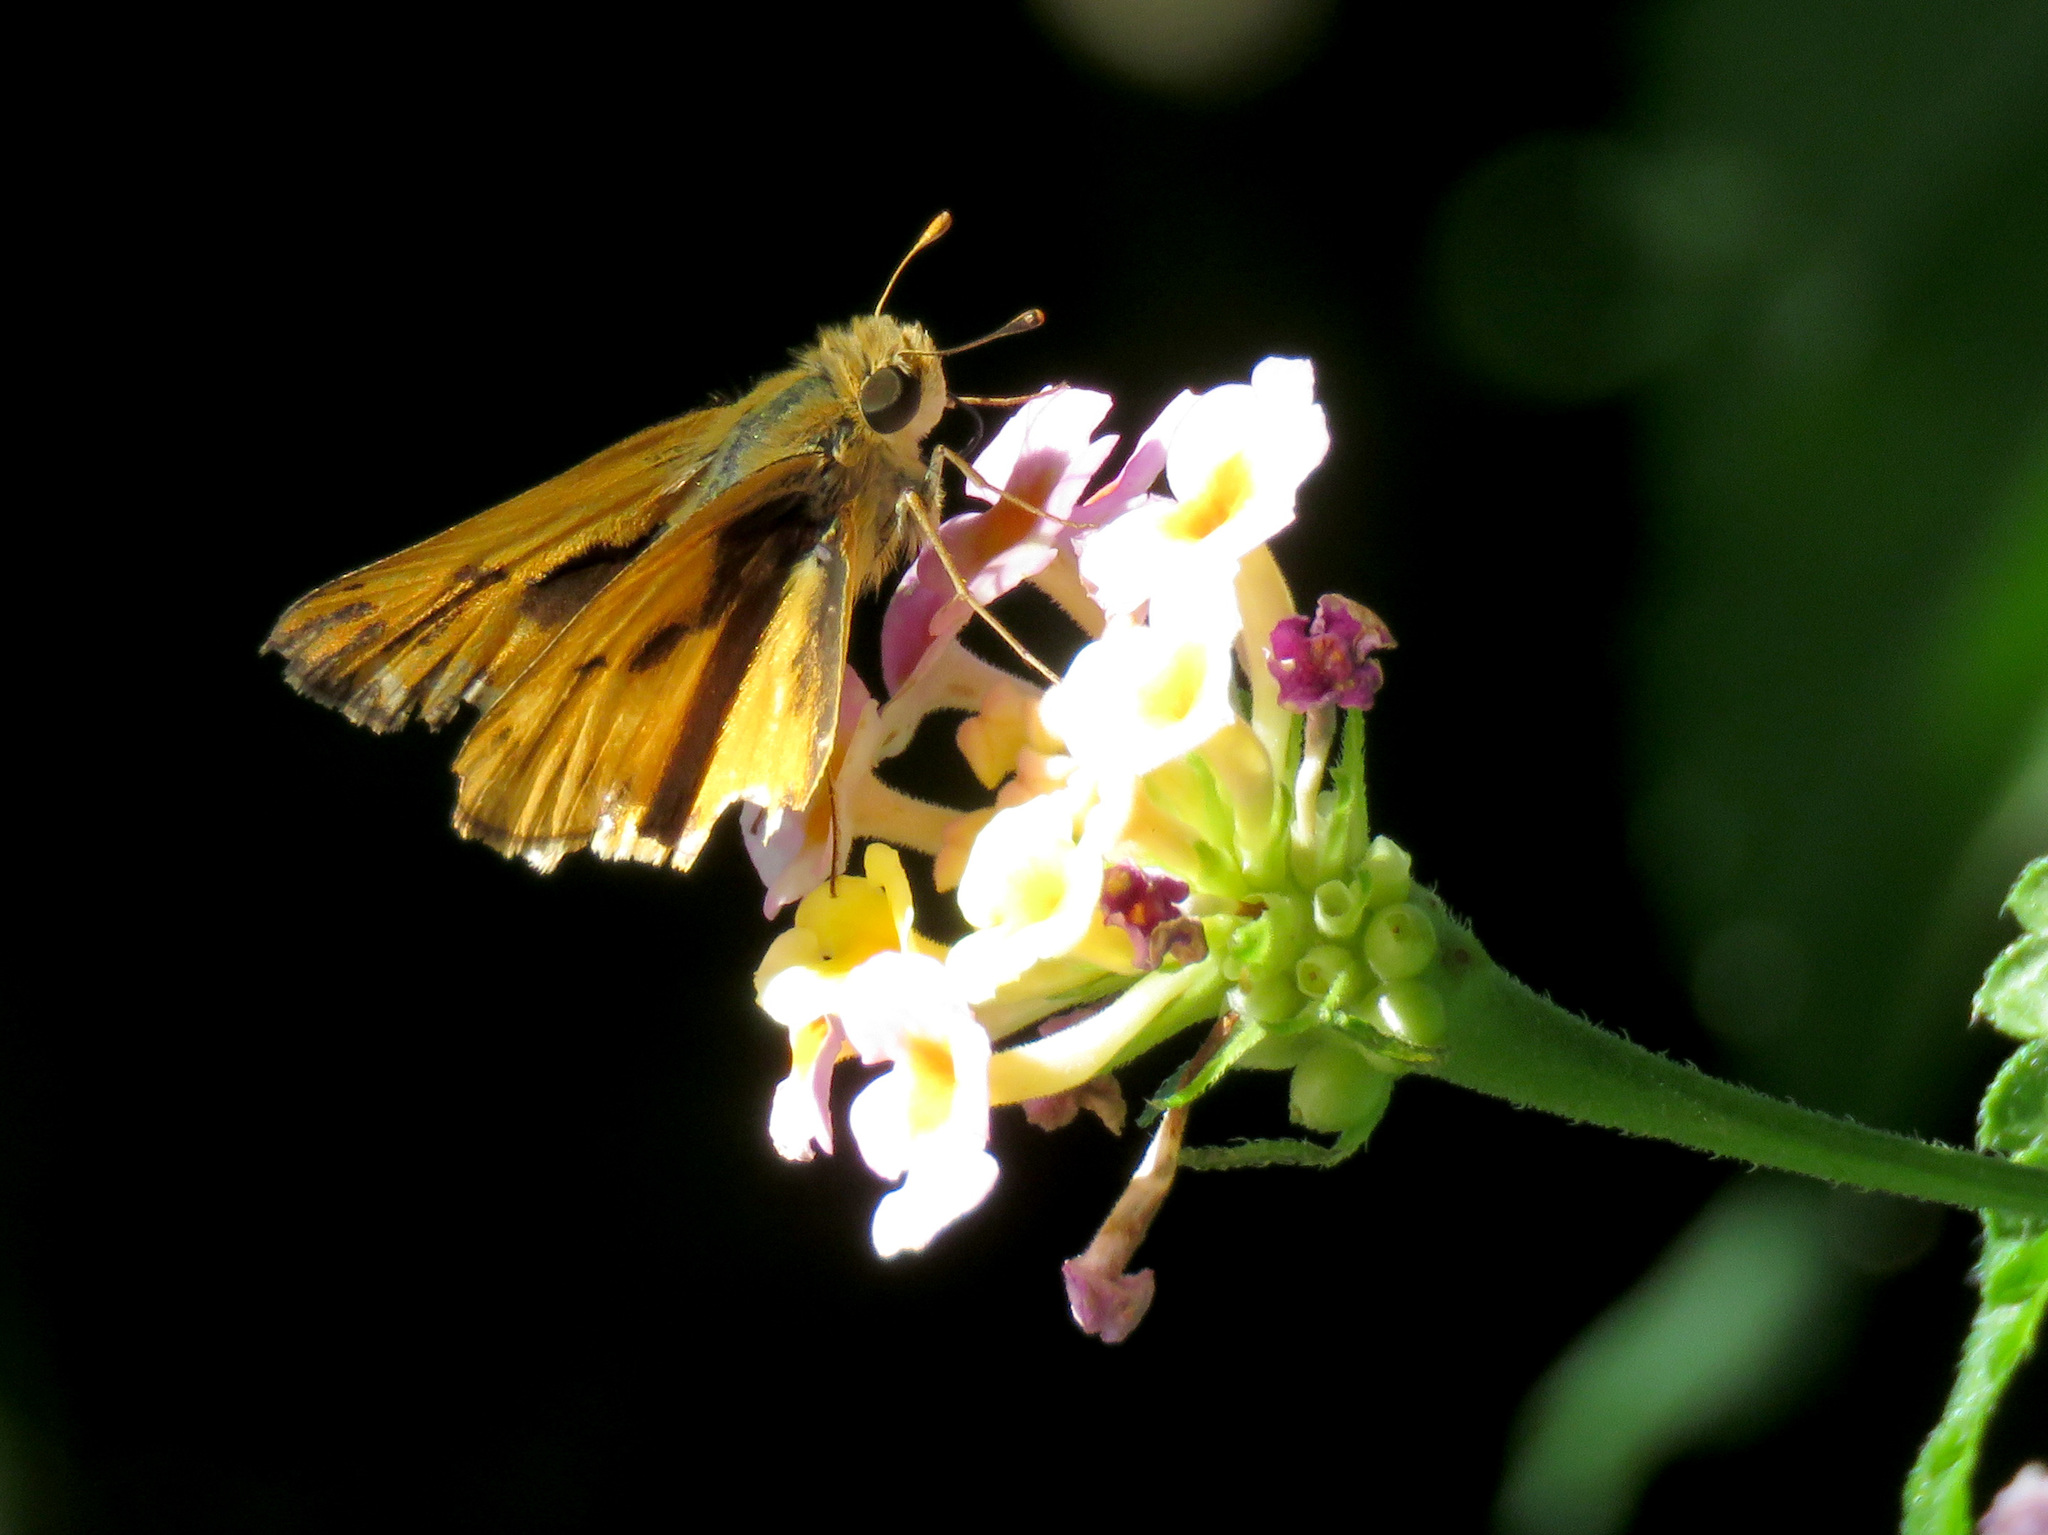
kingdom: Animalia
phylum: Arthropoda
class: Insecta
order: Lepidoptera
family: Hesperiidae
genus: Hylephila
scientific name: Hylephila phyleus
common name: Fiery skipper
